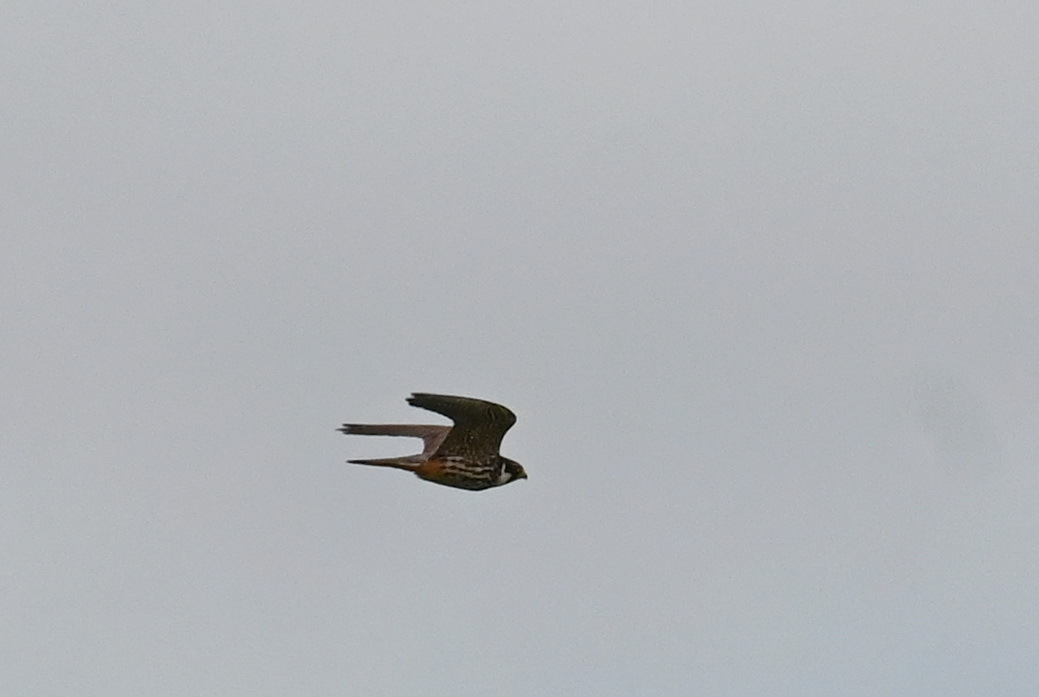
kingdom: Animalia
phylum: Chordata
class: Aves
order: Falconiformes
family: Falconidae
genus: Falco
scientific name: Falco subbuteo
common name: Eurasian hobby
